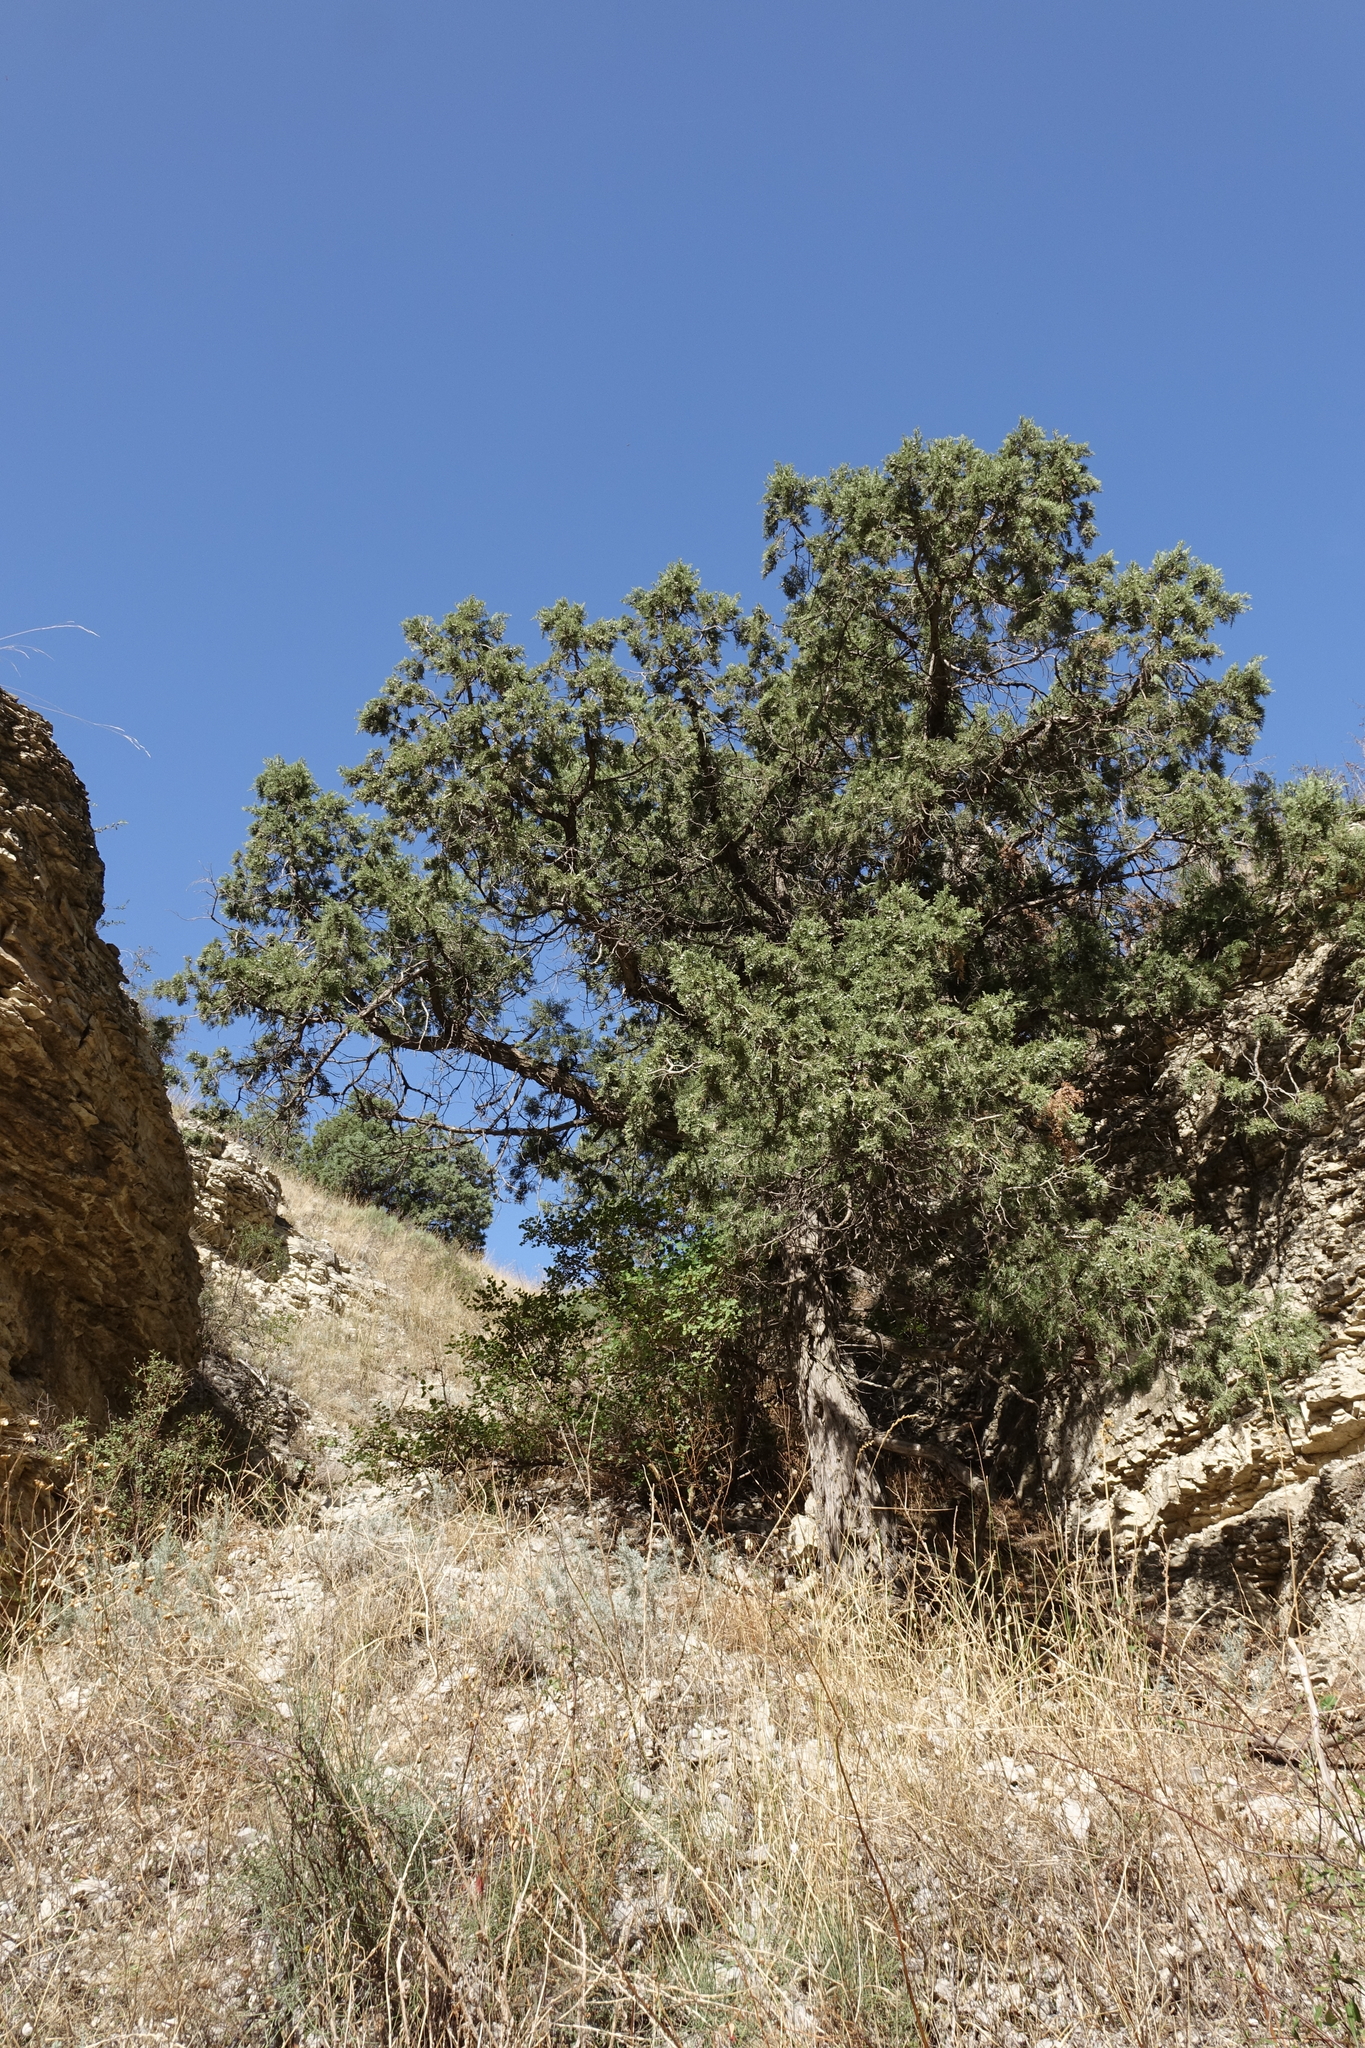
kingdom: Plantae
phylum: Tracheophyta
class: Pinopsida
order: Pinales
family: Cupressaceae
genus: Juniperus
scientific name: Juniperus excelsa
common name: Crimean juniper
